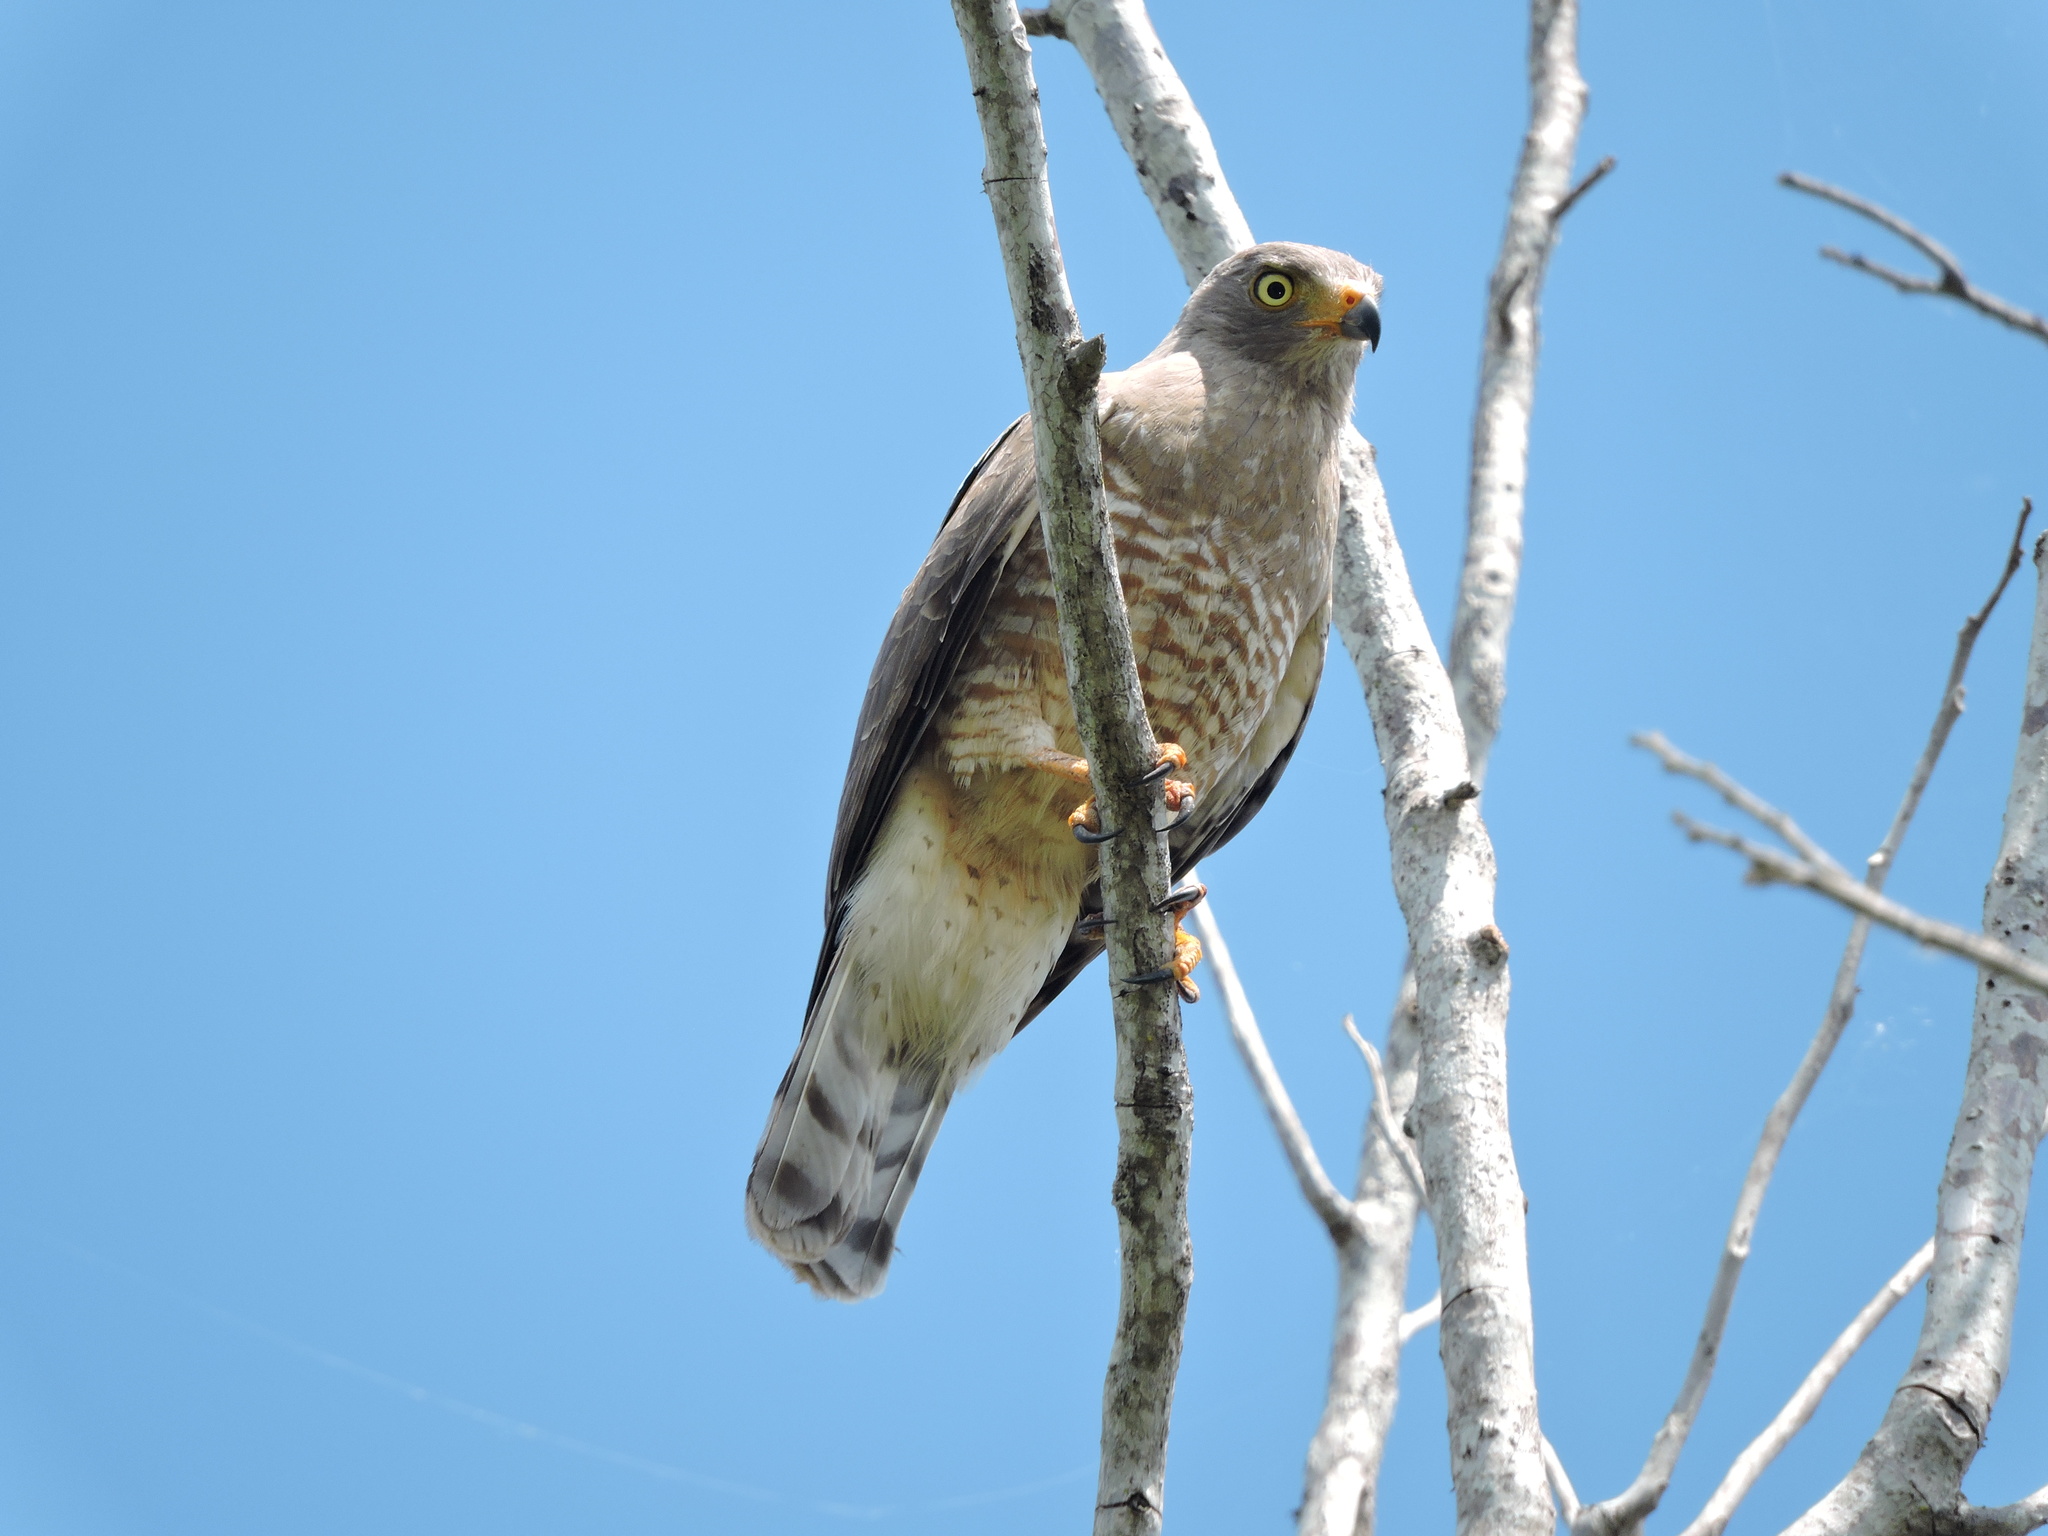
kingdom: Animalia
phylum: Chordata
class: Aves
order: Accipitriformes
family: Accipitridae
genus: Rupornis
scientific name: Rupornis magnirostris
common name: Roadside hawk
